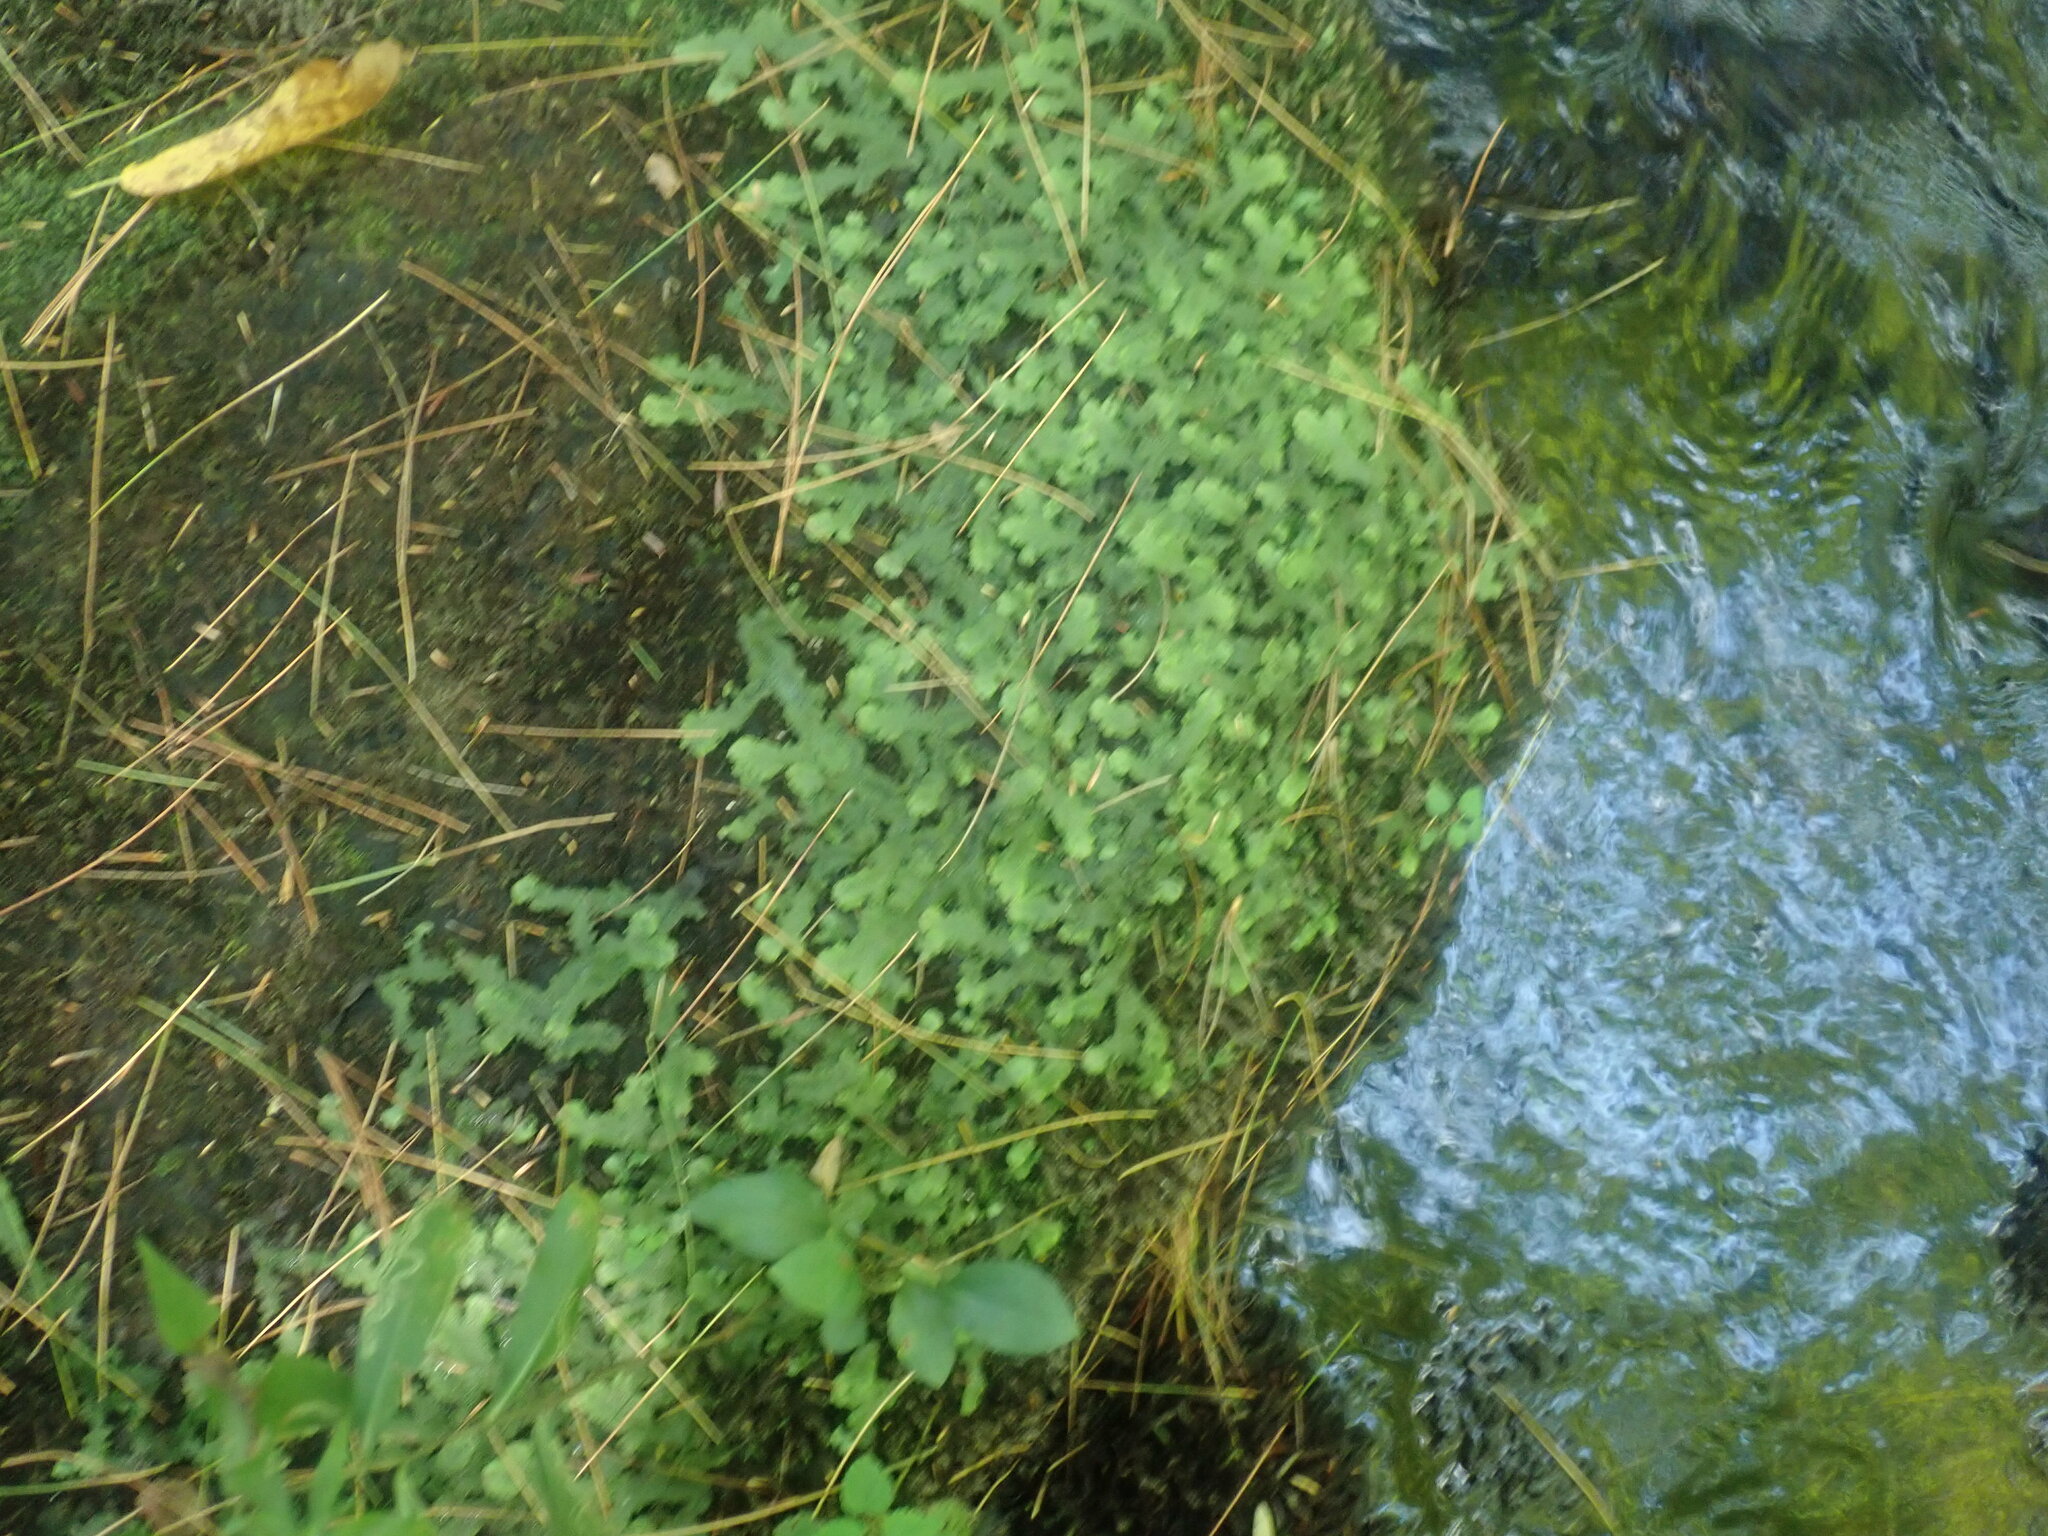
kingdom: Plantae
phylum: Marchantiophyta
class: Marchantiopsida
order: Marchantiales
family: Conocephalaceae
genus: Conocephalum
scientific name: Conocephalum salebrosum
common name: Cat-tongue liverwort
